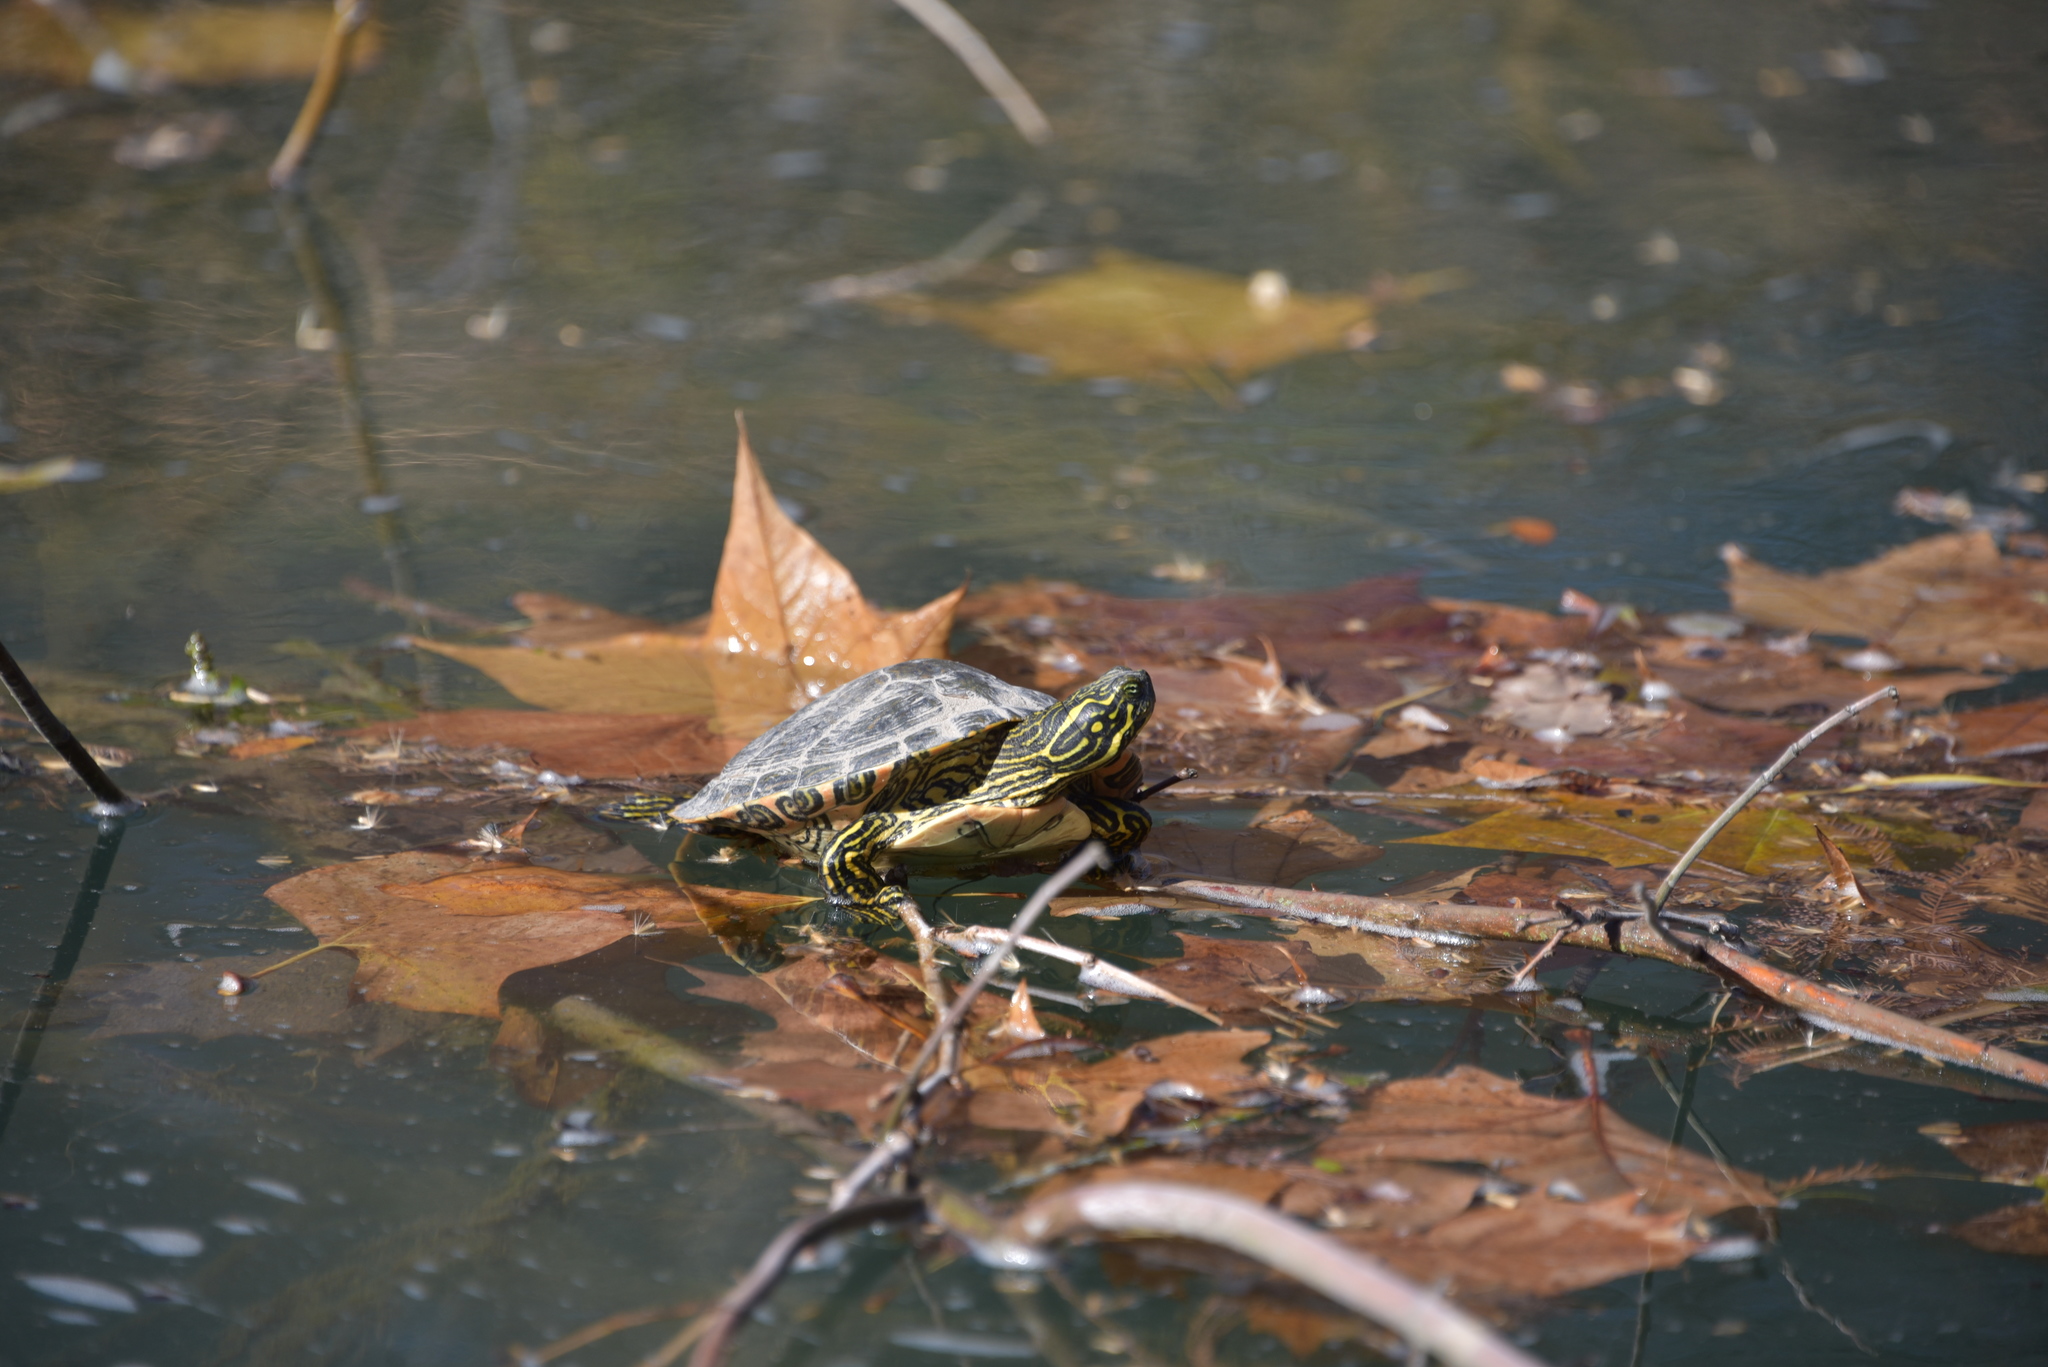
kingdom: Animalia
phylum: Chordata
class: Testudines
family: Emydidae
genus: Pseudemys
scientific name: Pseudemys texana
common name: Texas river cooter
